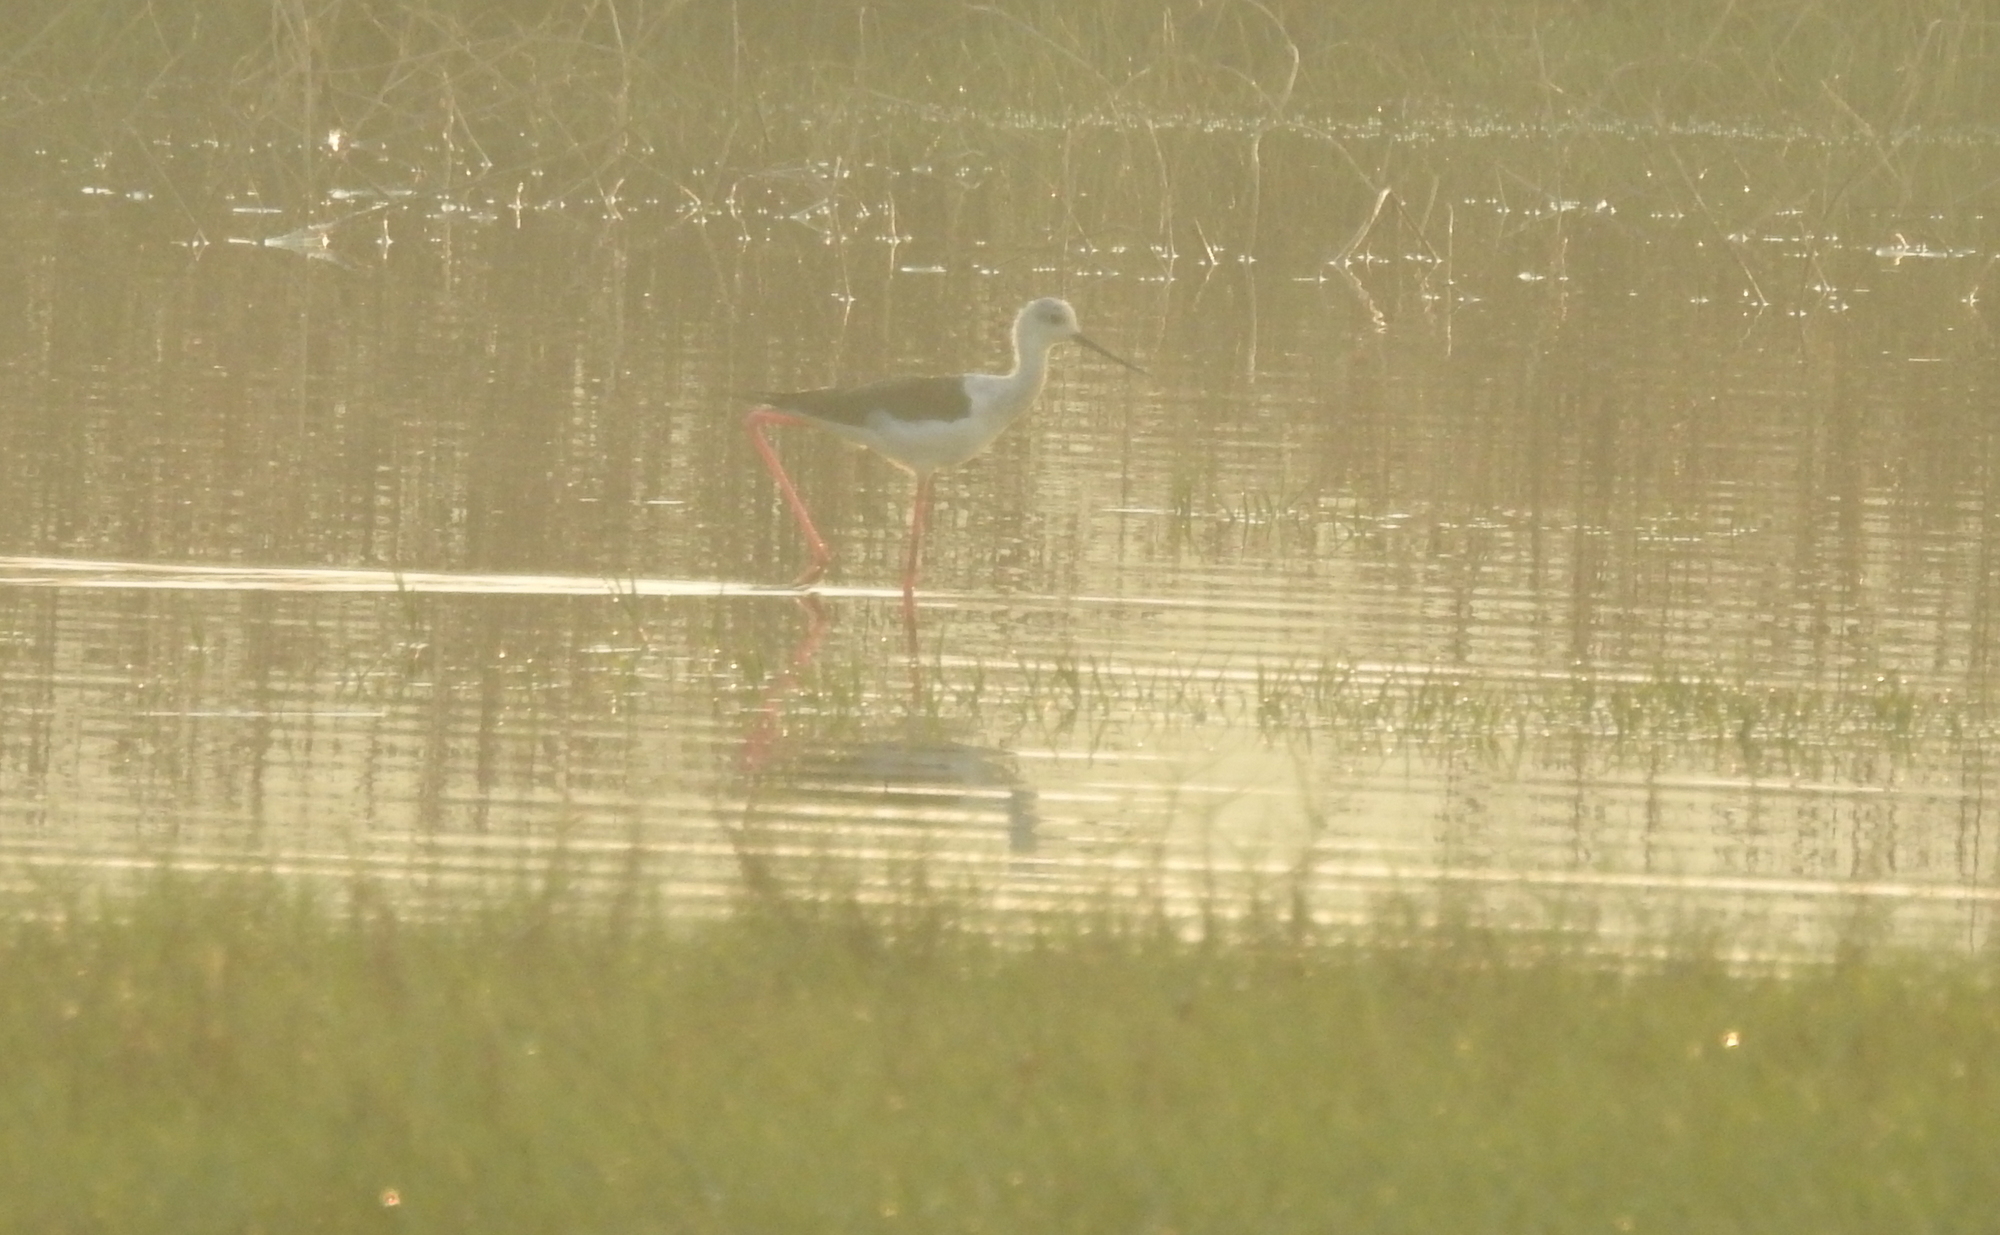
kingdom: Animalia
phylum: Chordata
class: Aves
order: Charadriiformes
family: Recurvirostridae
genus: Himantopus
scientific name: Himantopus himantopus
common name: Black-winged stilt
